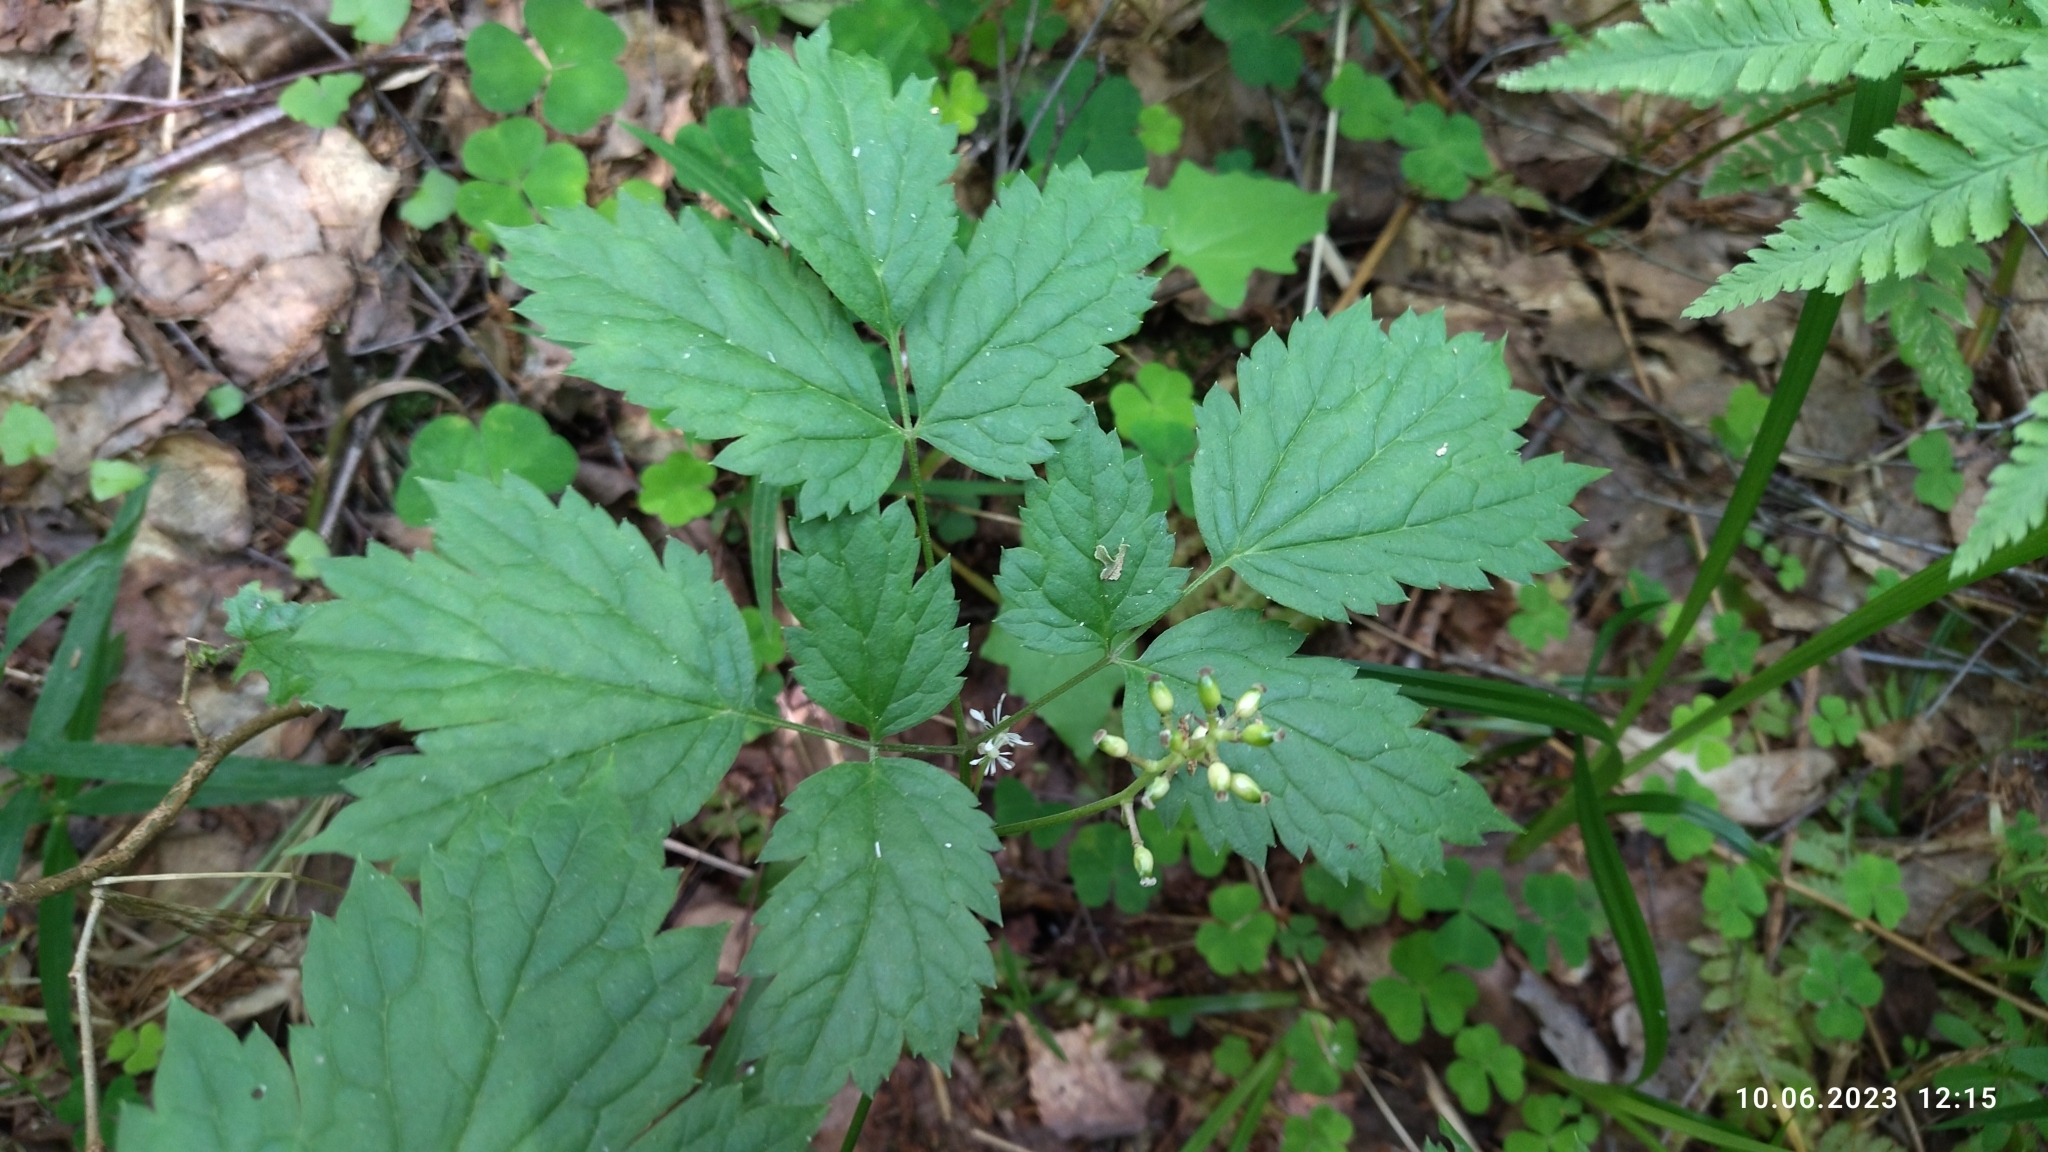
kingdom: Plantae
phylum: Tracheophyta
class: Magnoliopsida
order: Ranunculales
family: Ranunculaceae
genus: Actaea
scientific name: Actaea spicata
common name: Baneberry
